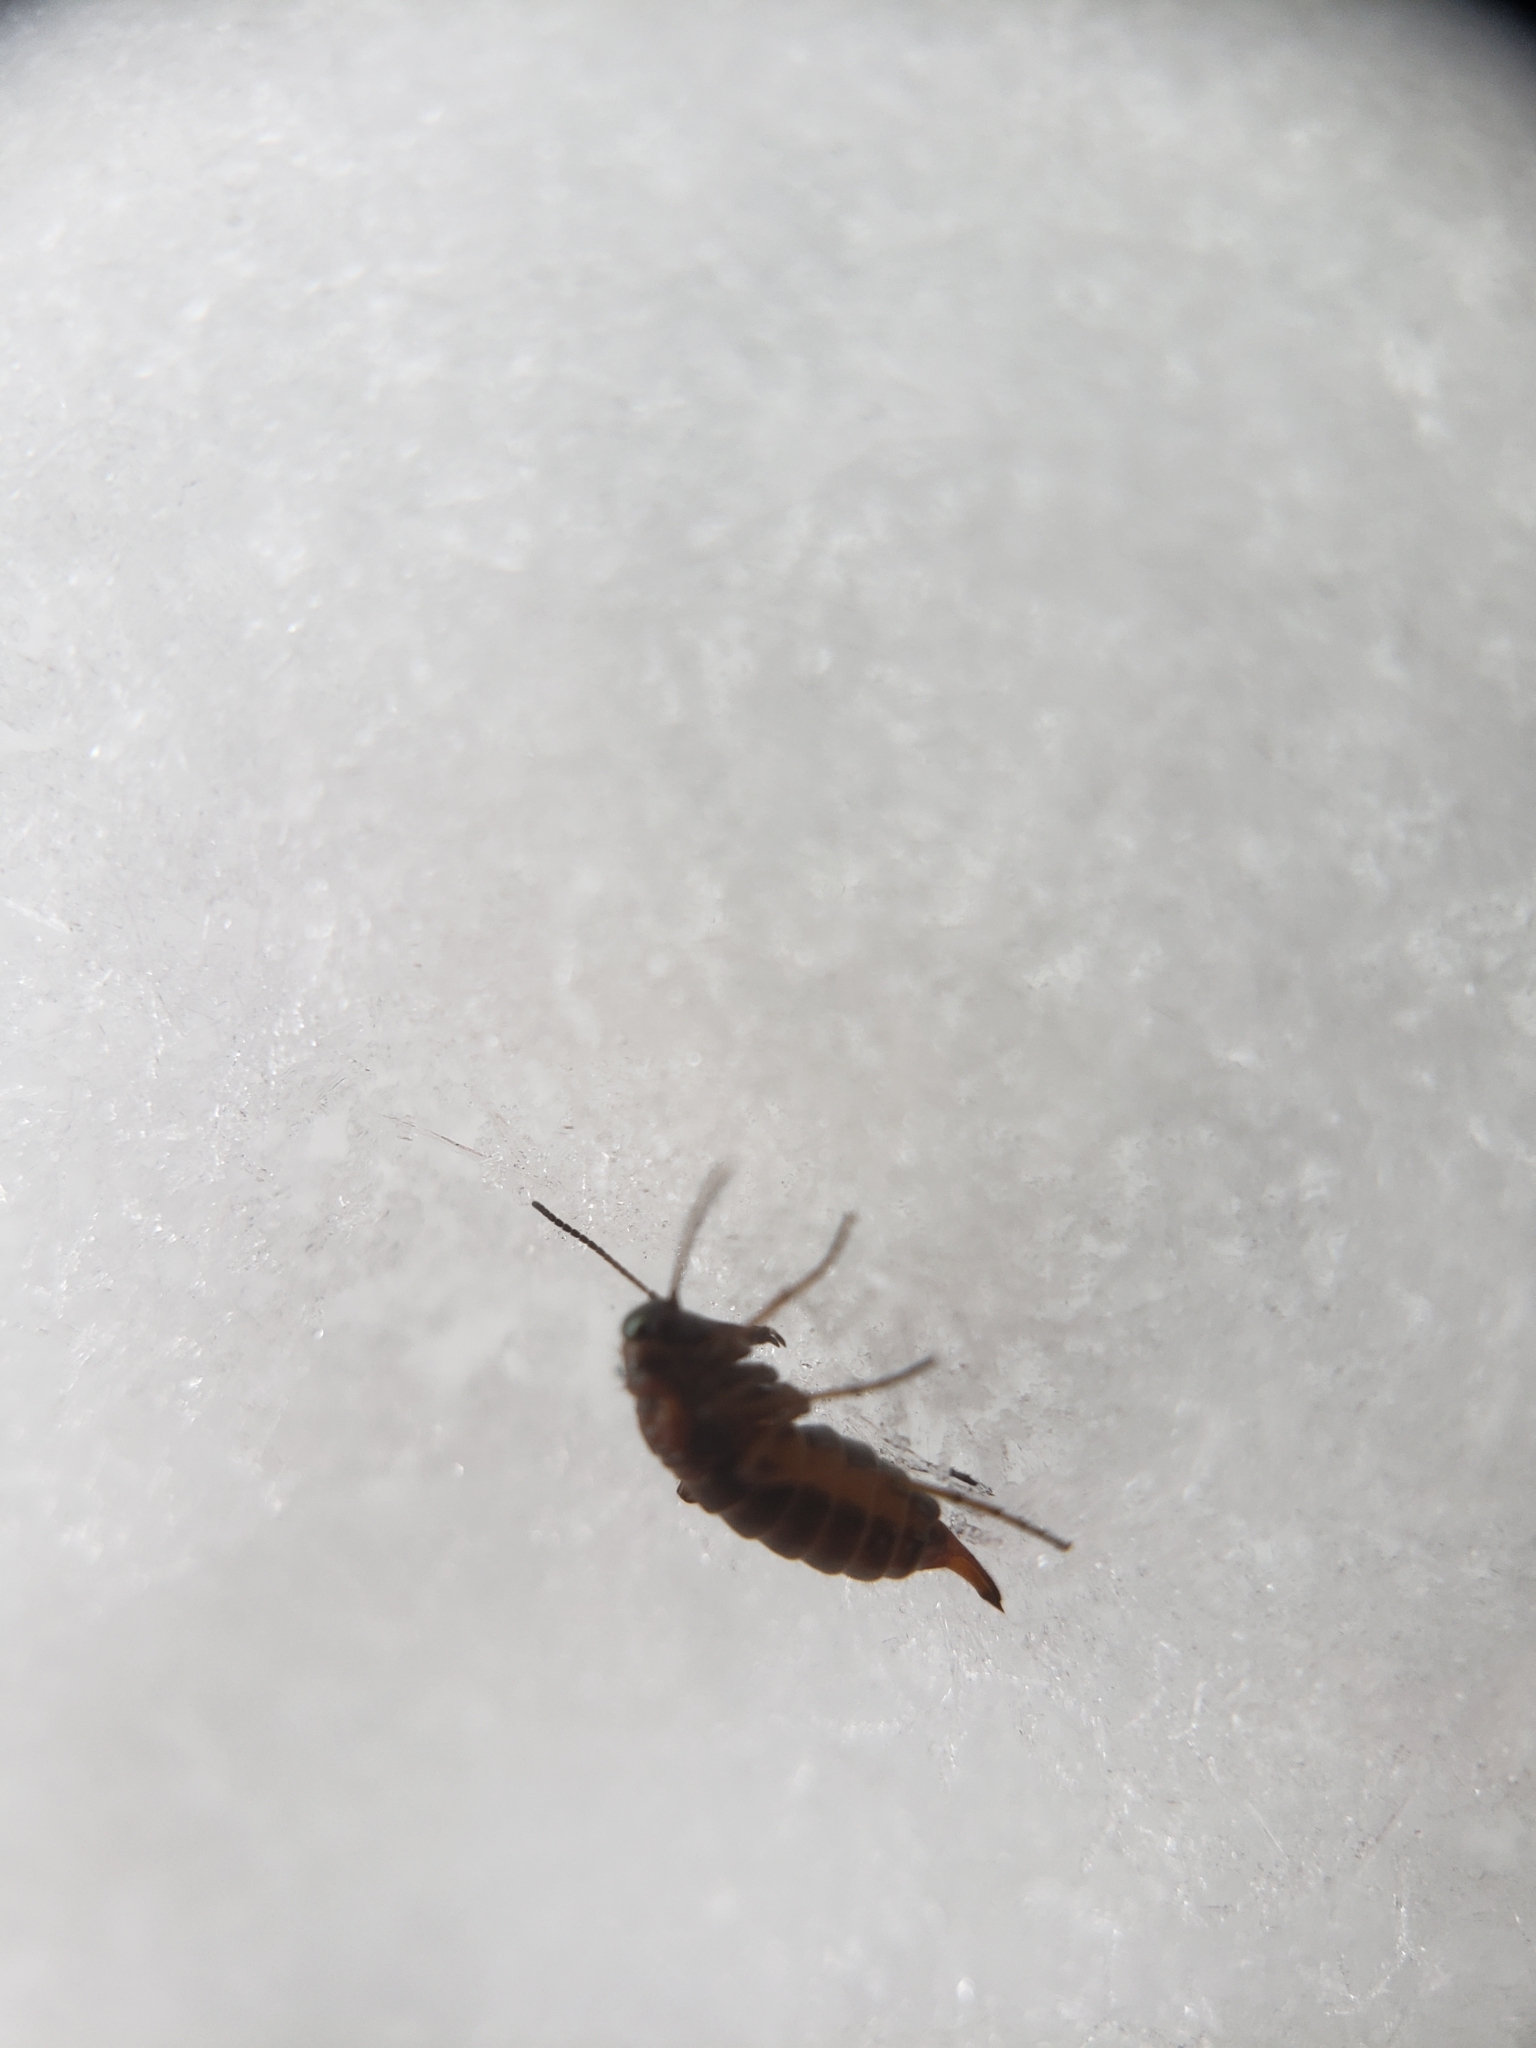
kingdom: Animalia
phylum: Arthropoda
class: Insecta
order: Mecoptera
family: Boreidae
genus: Boreus
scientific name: Boreus nivoriundus
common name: Snow-born boreus
